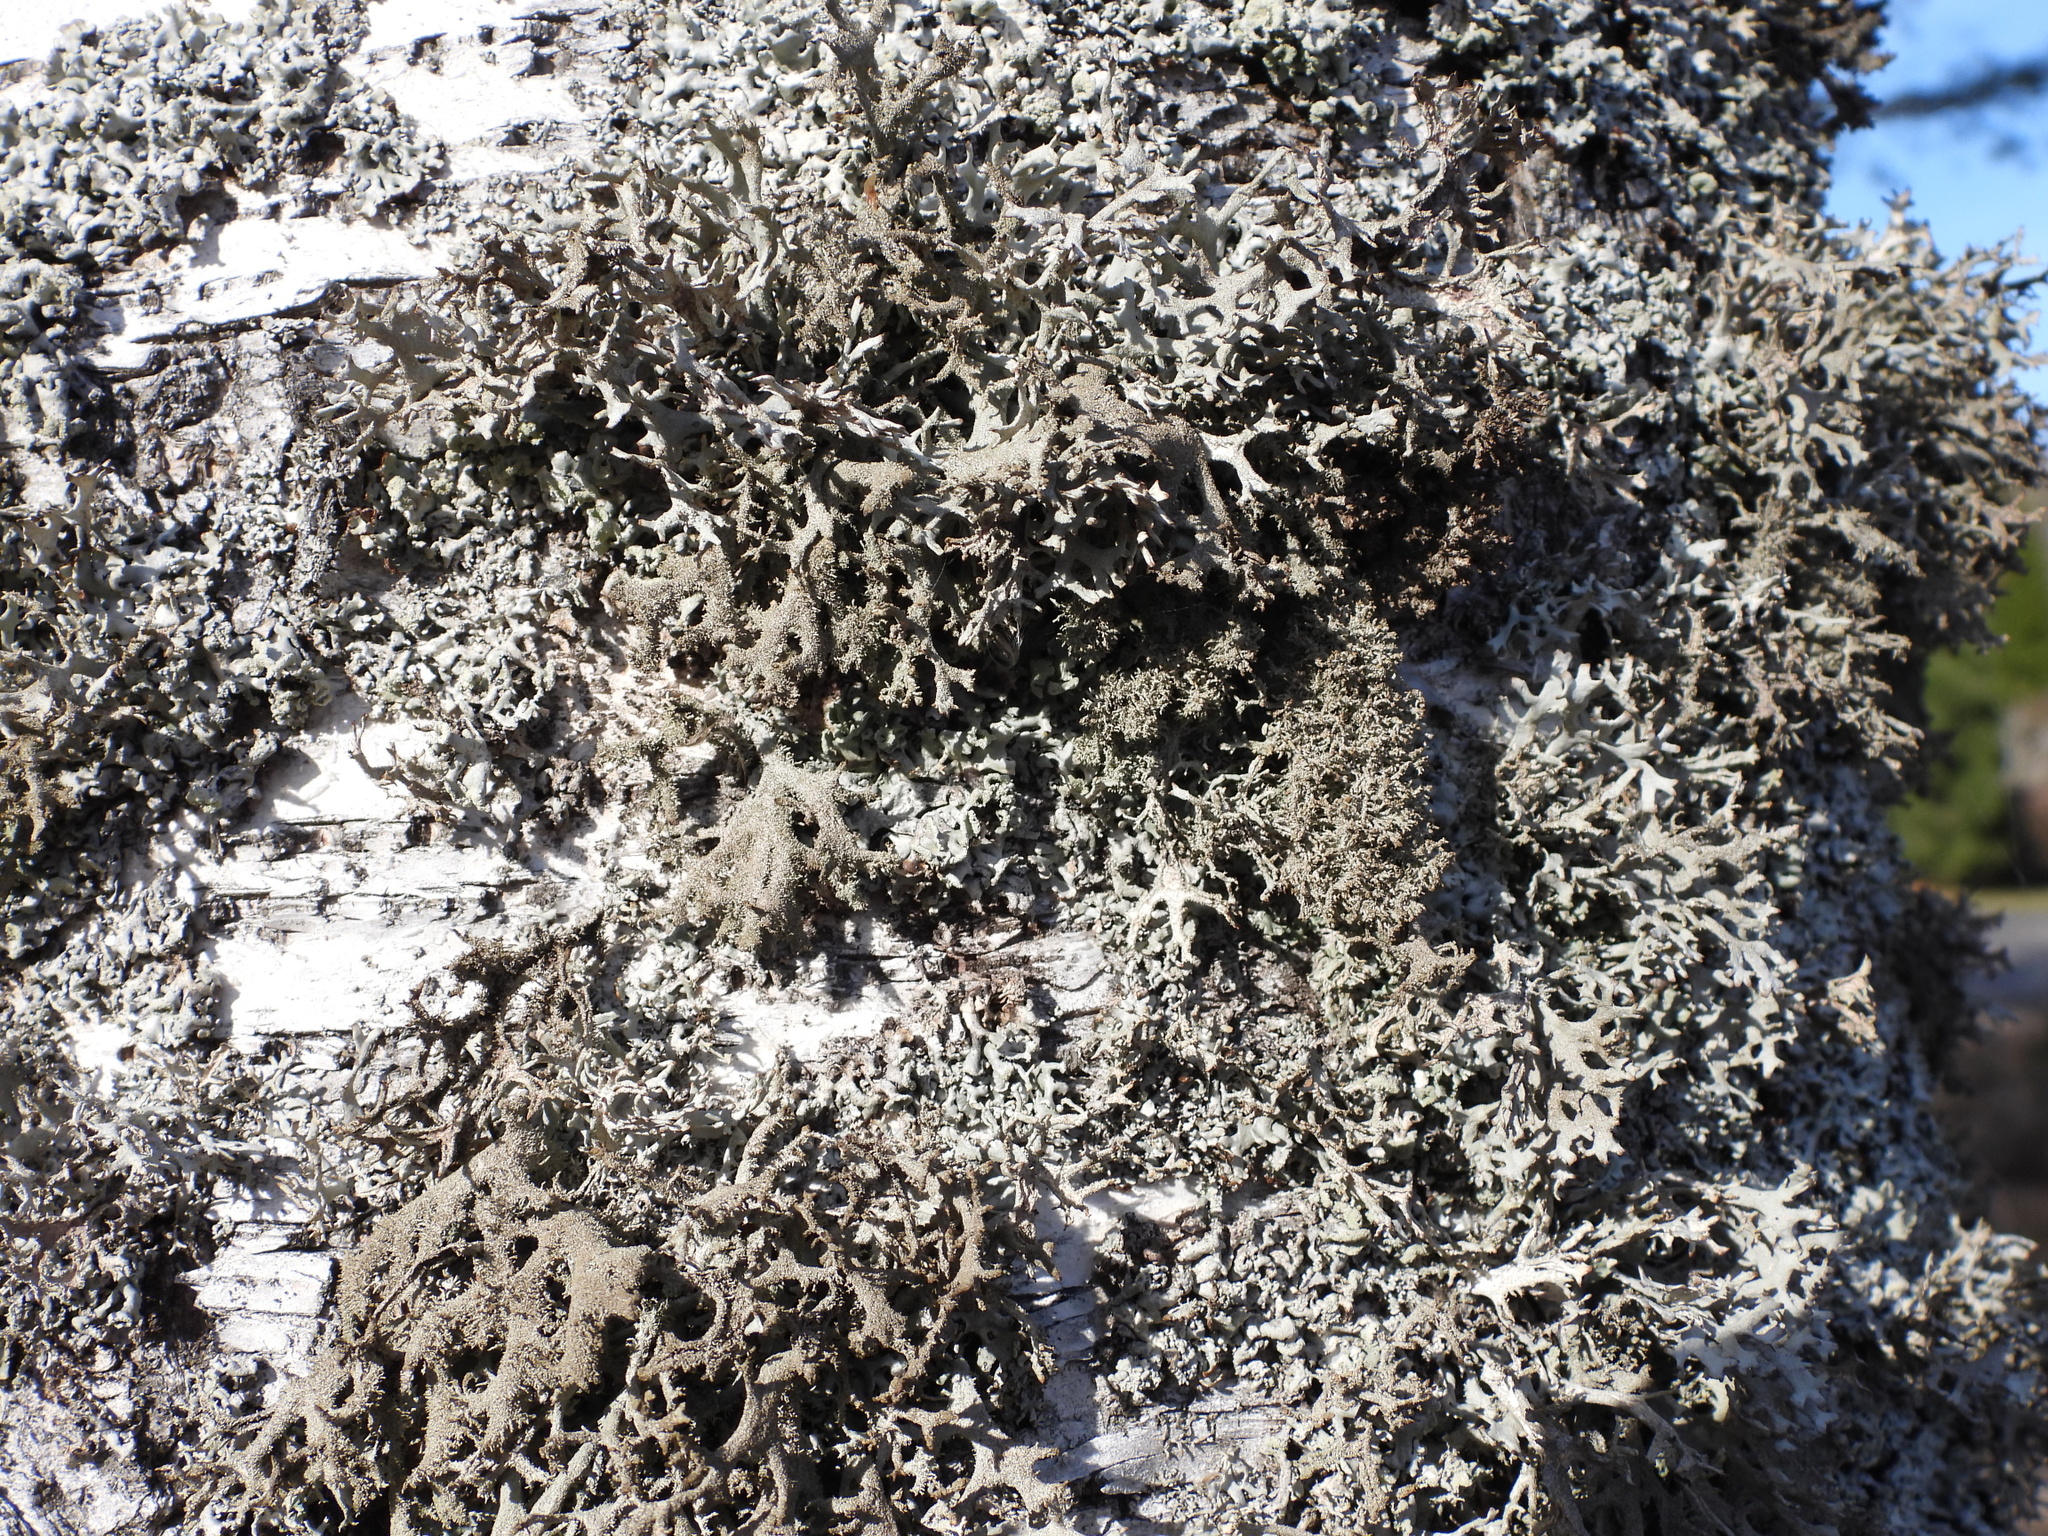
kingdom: Fungi
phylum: Ascomycota
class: Lecanoromycetes
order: Lecanorales
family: Parmeliaceae
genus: Pseudevernia
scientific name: Pseudevernia furfuracea
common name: Tree moss
